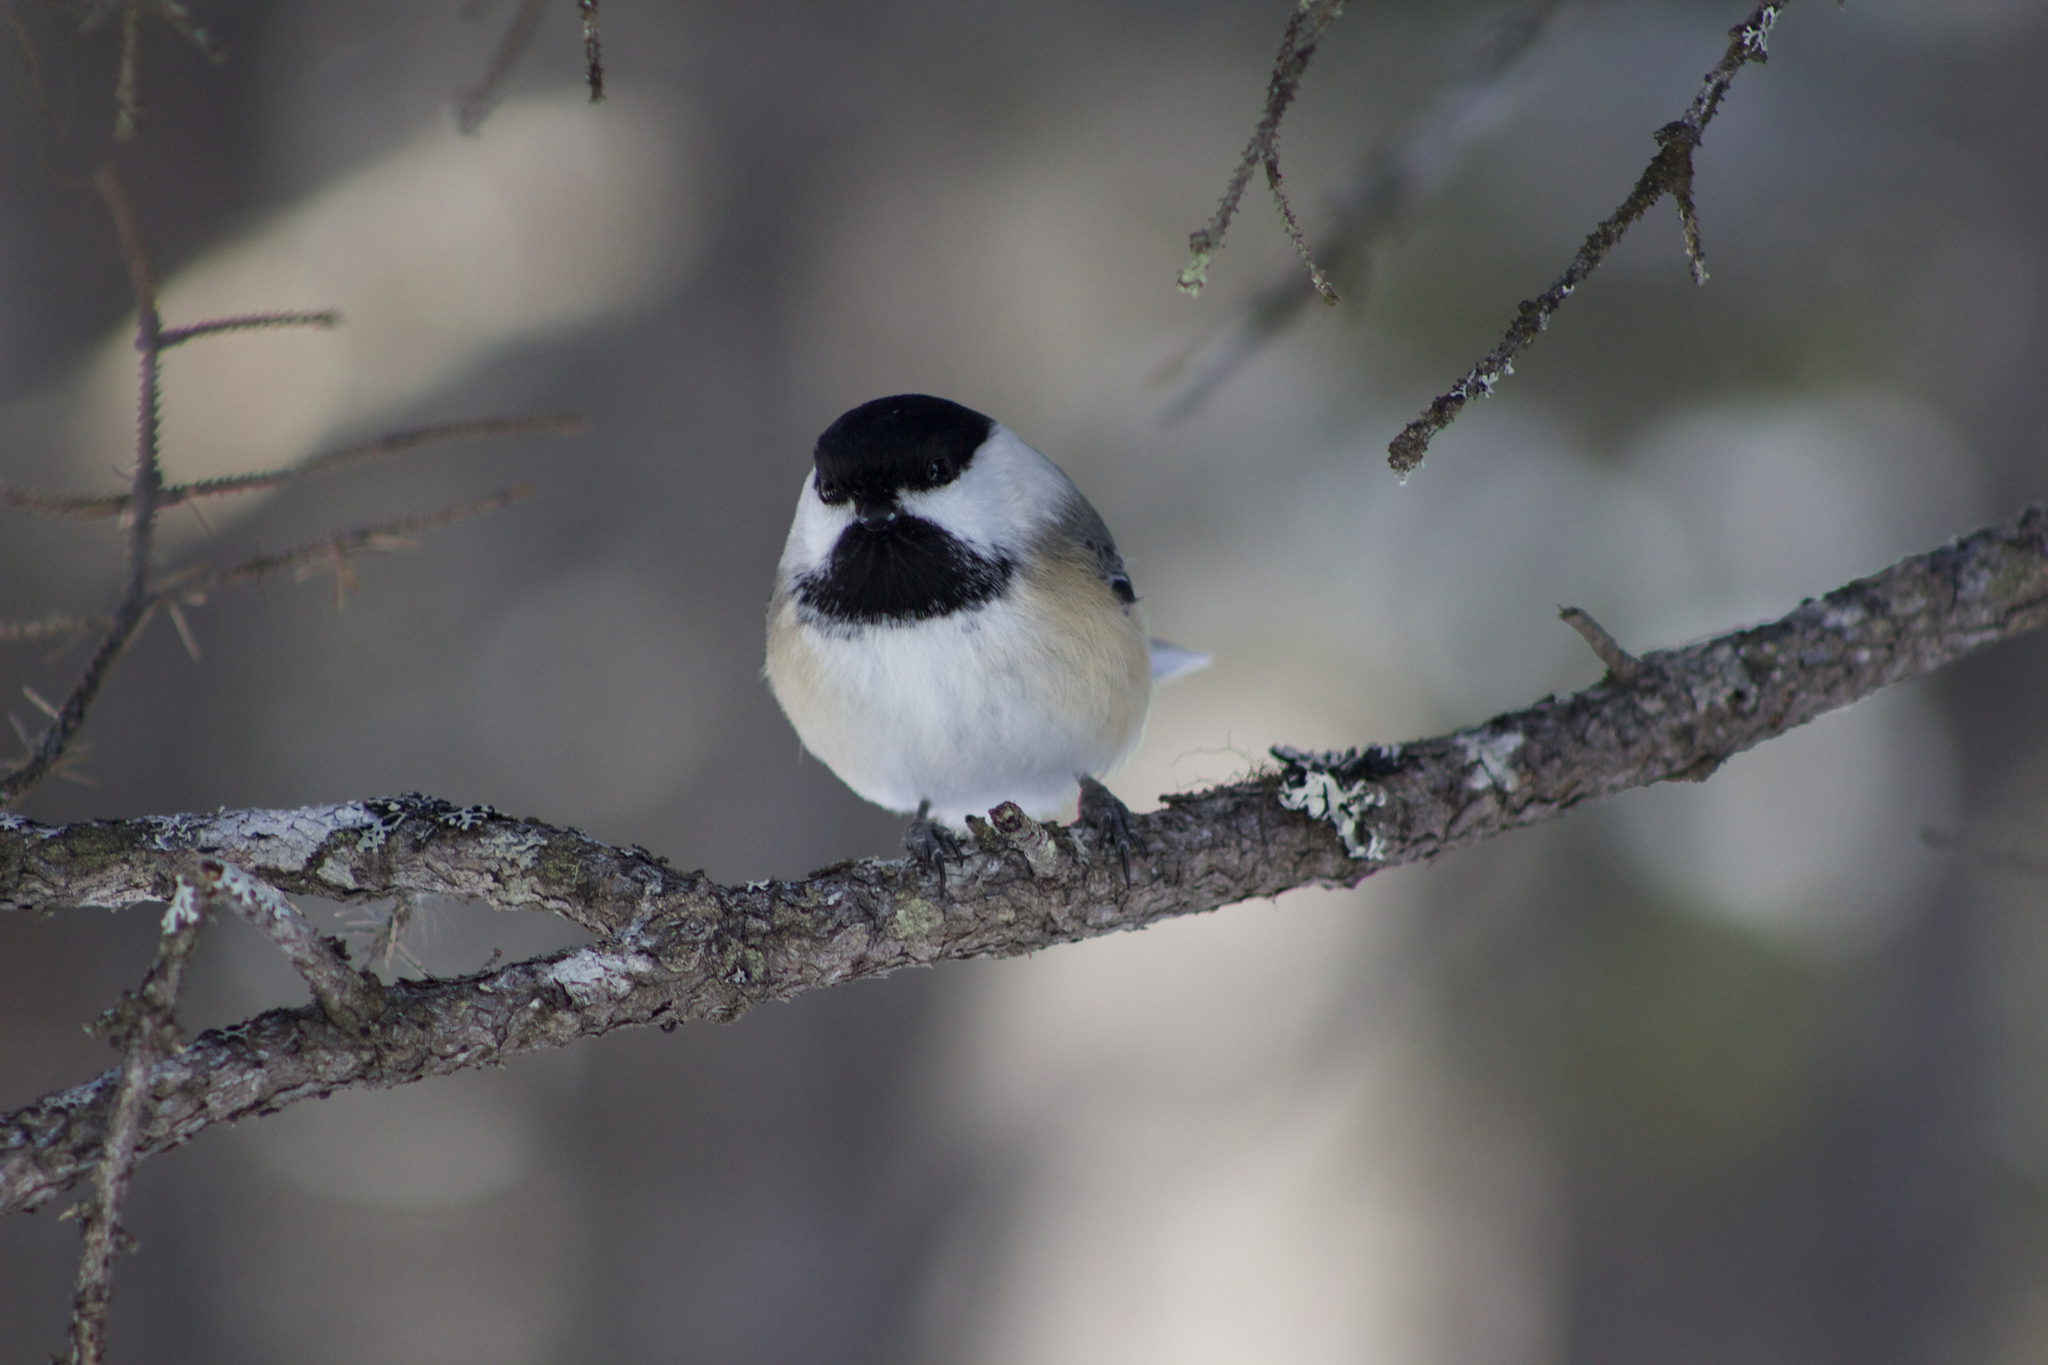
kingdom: Animalia
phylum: Chordata
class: Aves
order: Passeriformes
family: Paridae
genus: Poecile
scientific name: Poecile atricapillus
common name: Black-capped chickadee
